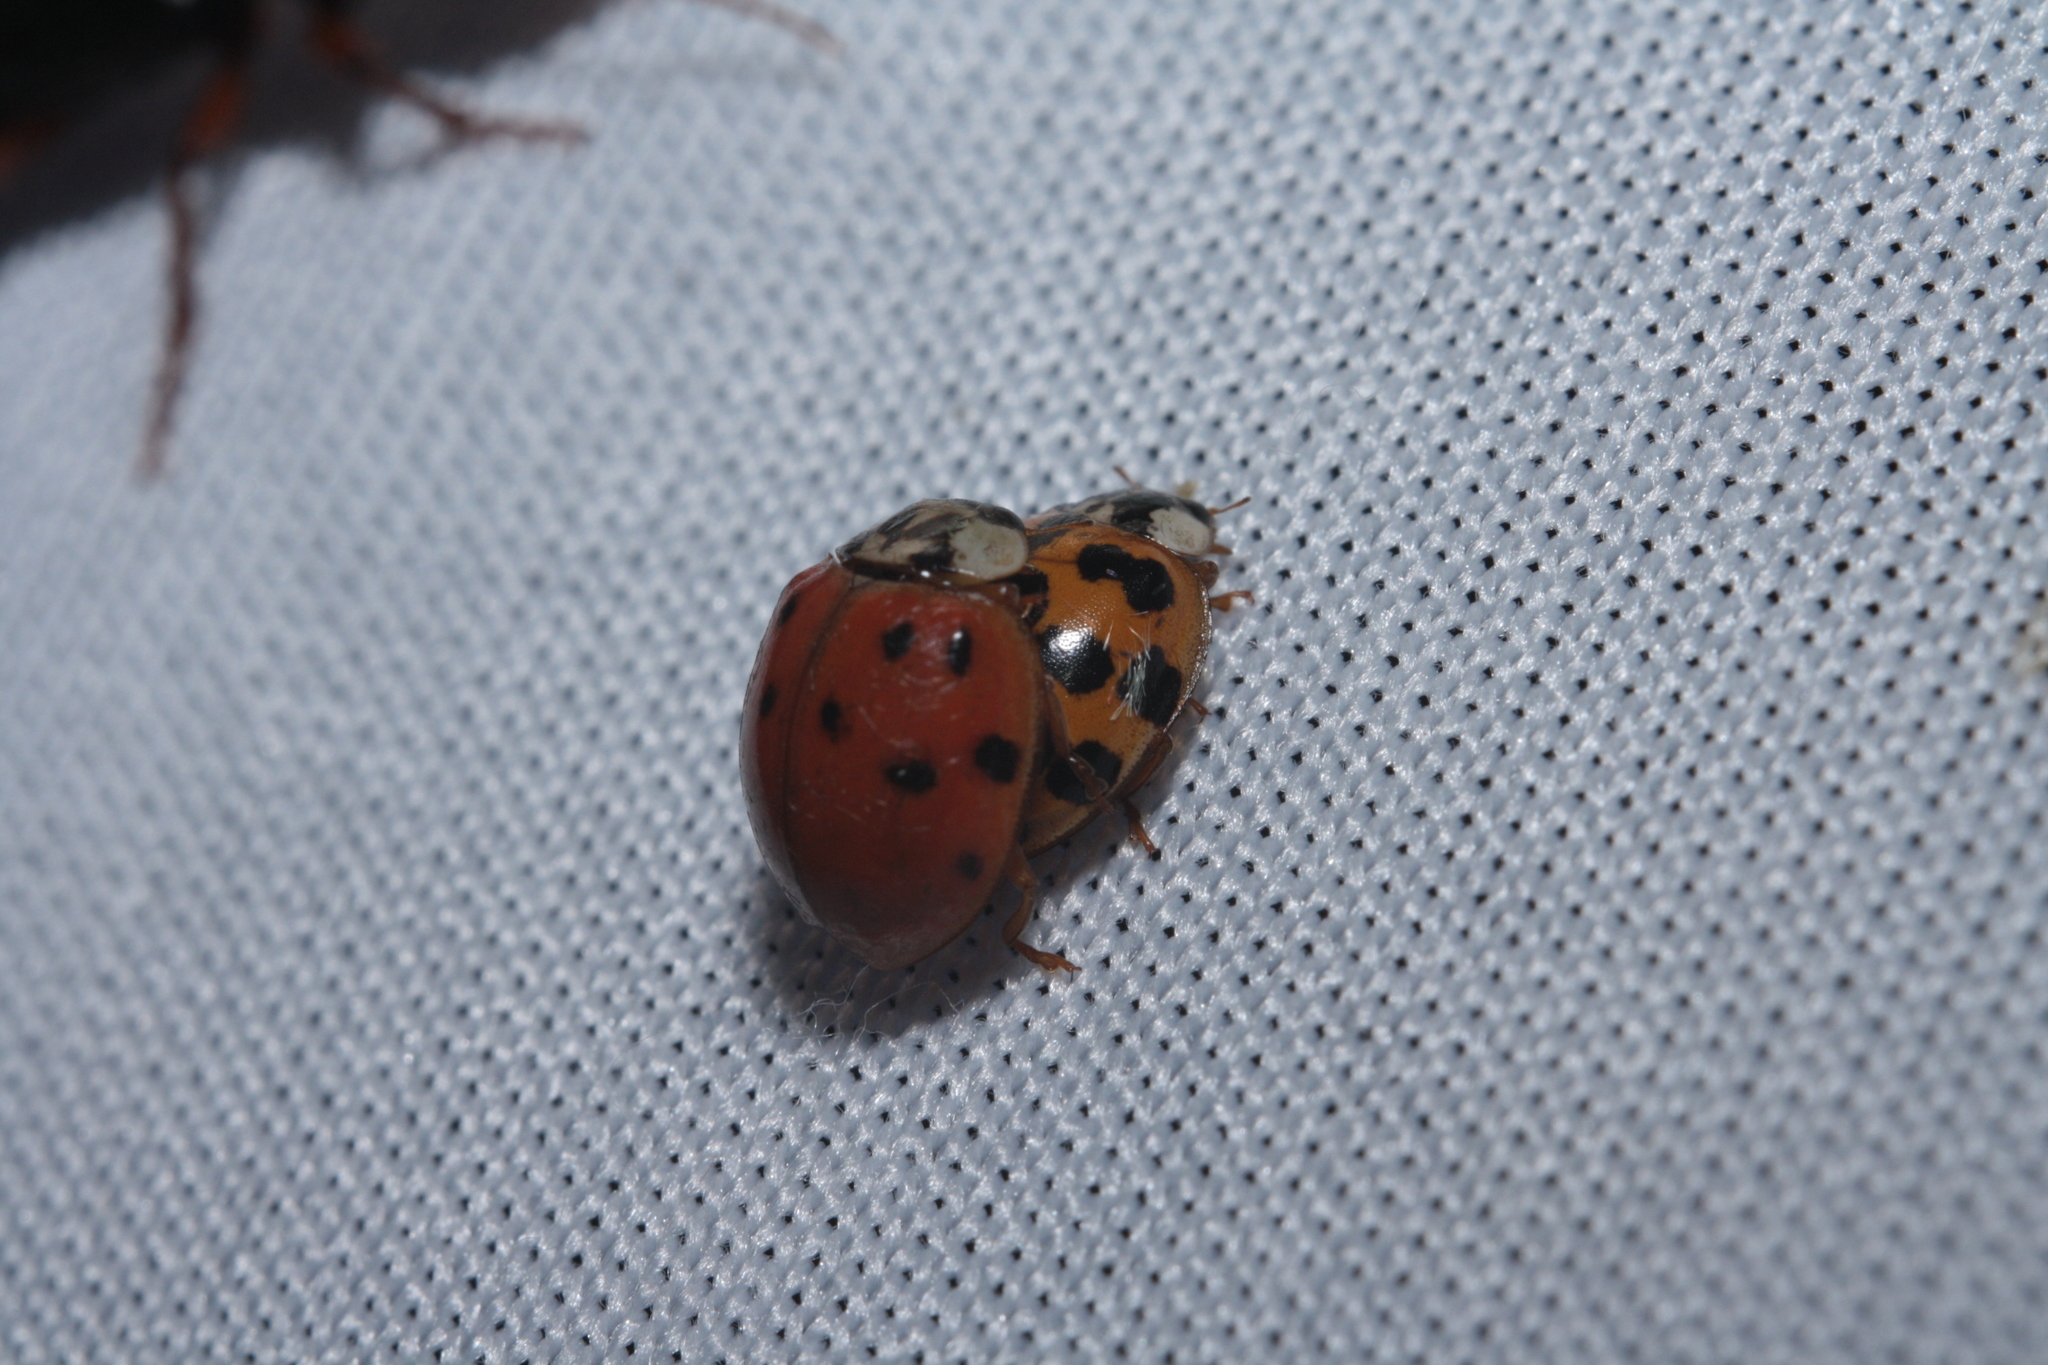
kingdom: Animalia
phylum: Arthropoda
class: Insecta
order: Coleoptera
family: Coccinellidae
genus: Harmonia
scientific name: Harmonia axyridis
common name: Harlequin ladybird
